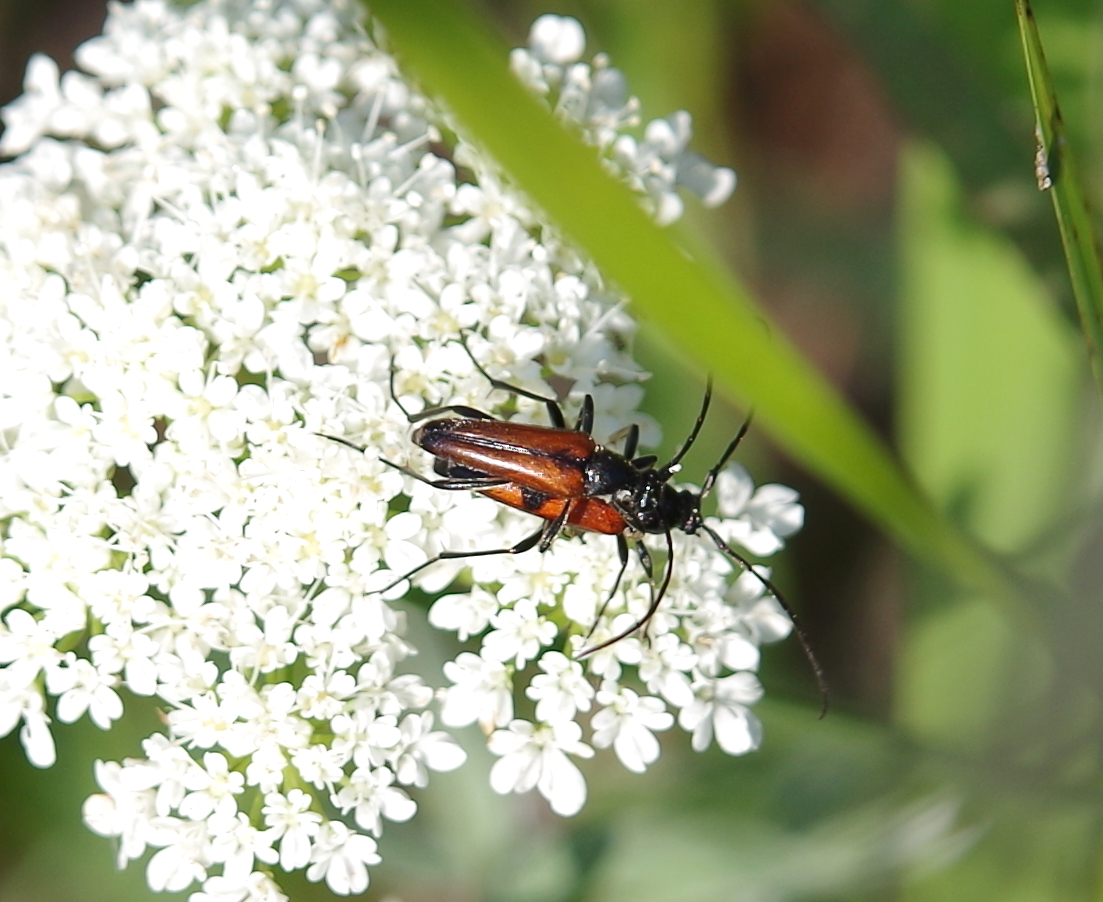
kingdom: Animalia
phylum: Arthropoda
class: Insecta
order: Coleoptera
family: Cerambycidae
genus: Stenurella
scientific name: Stenurella bifasciata
